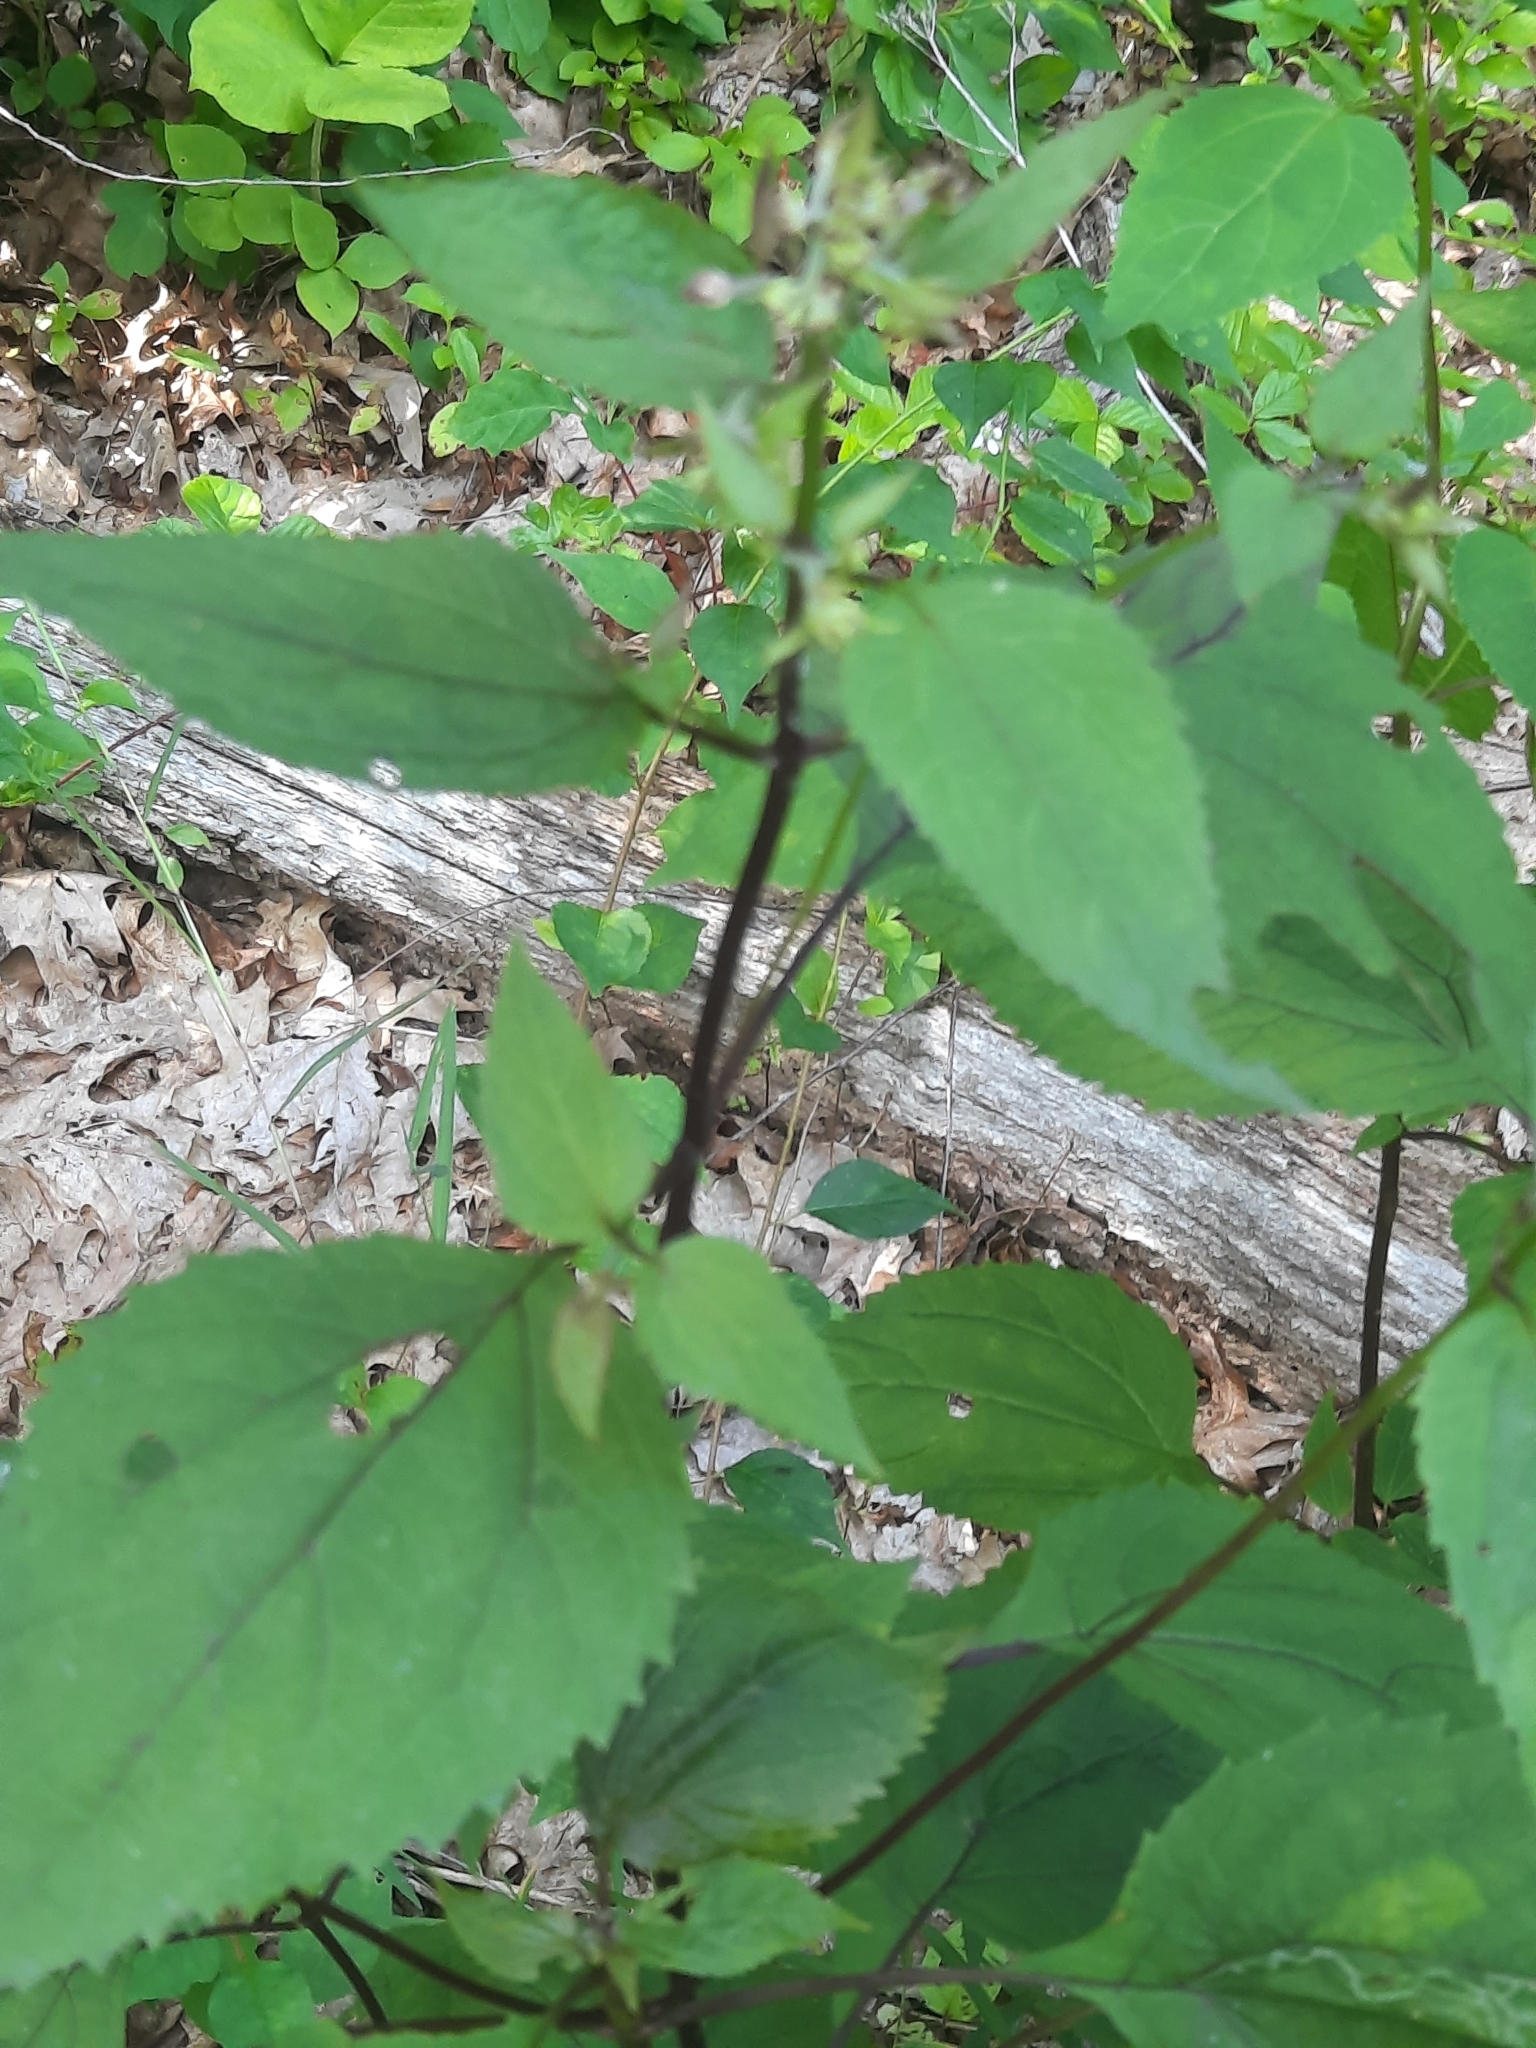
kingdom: Plantae
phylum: Tracheophyta
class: Magnoliopsida
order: Asterales
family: Asteraceae
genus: Ageratina
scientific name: Ageratina altissima
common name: White snakeroot
